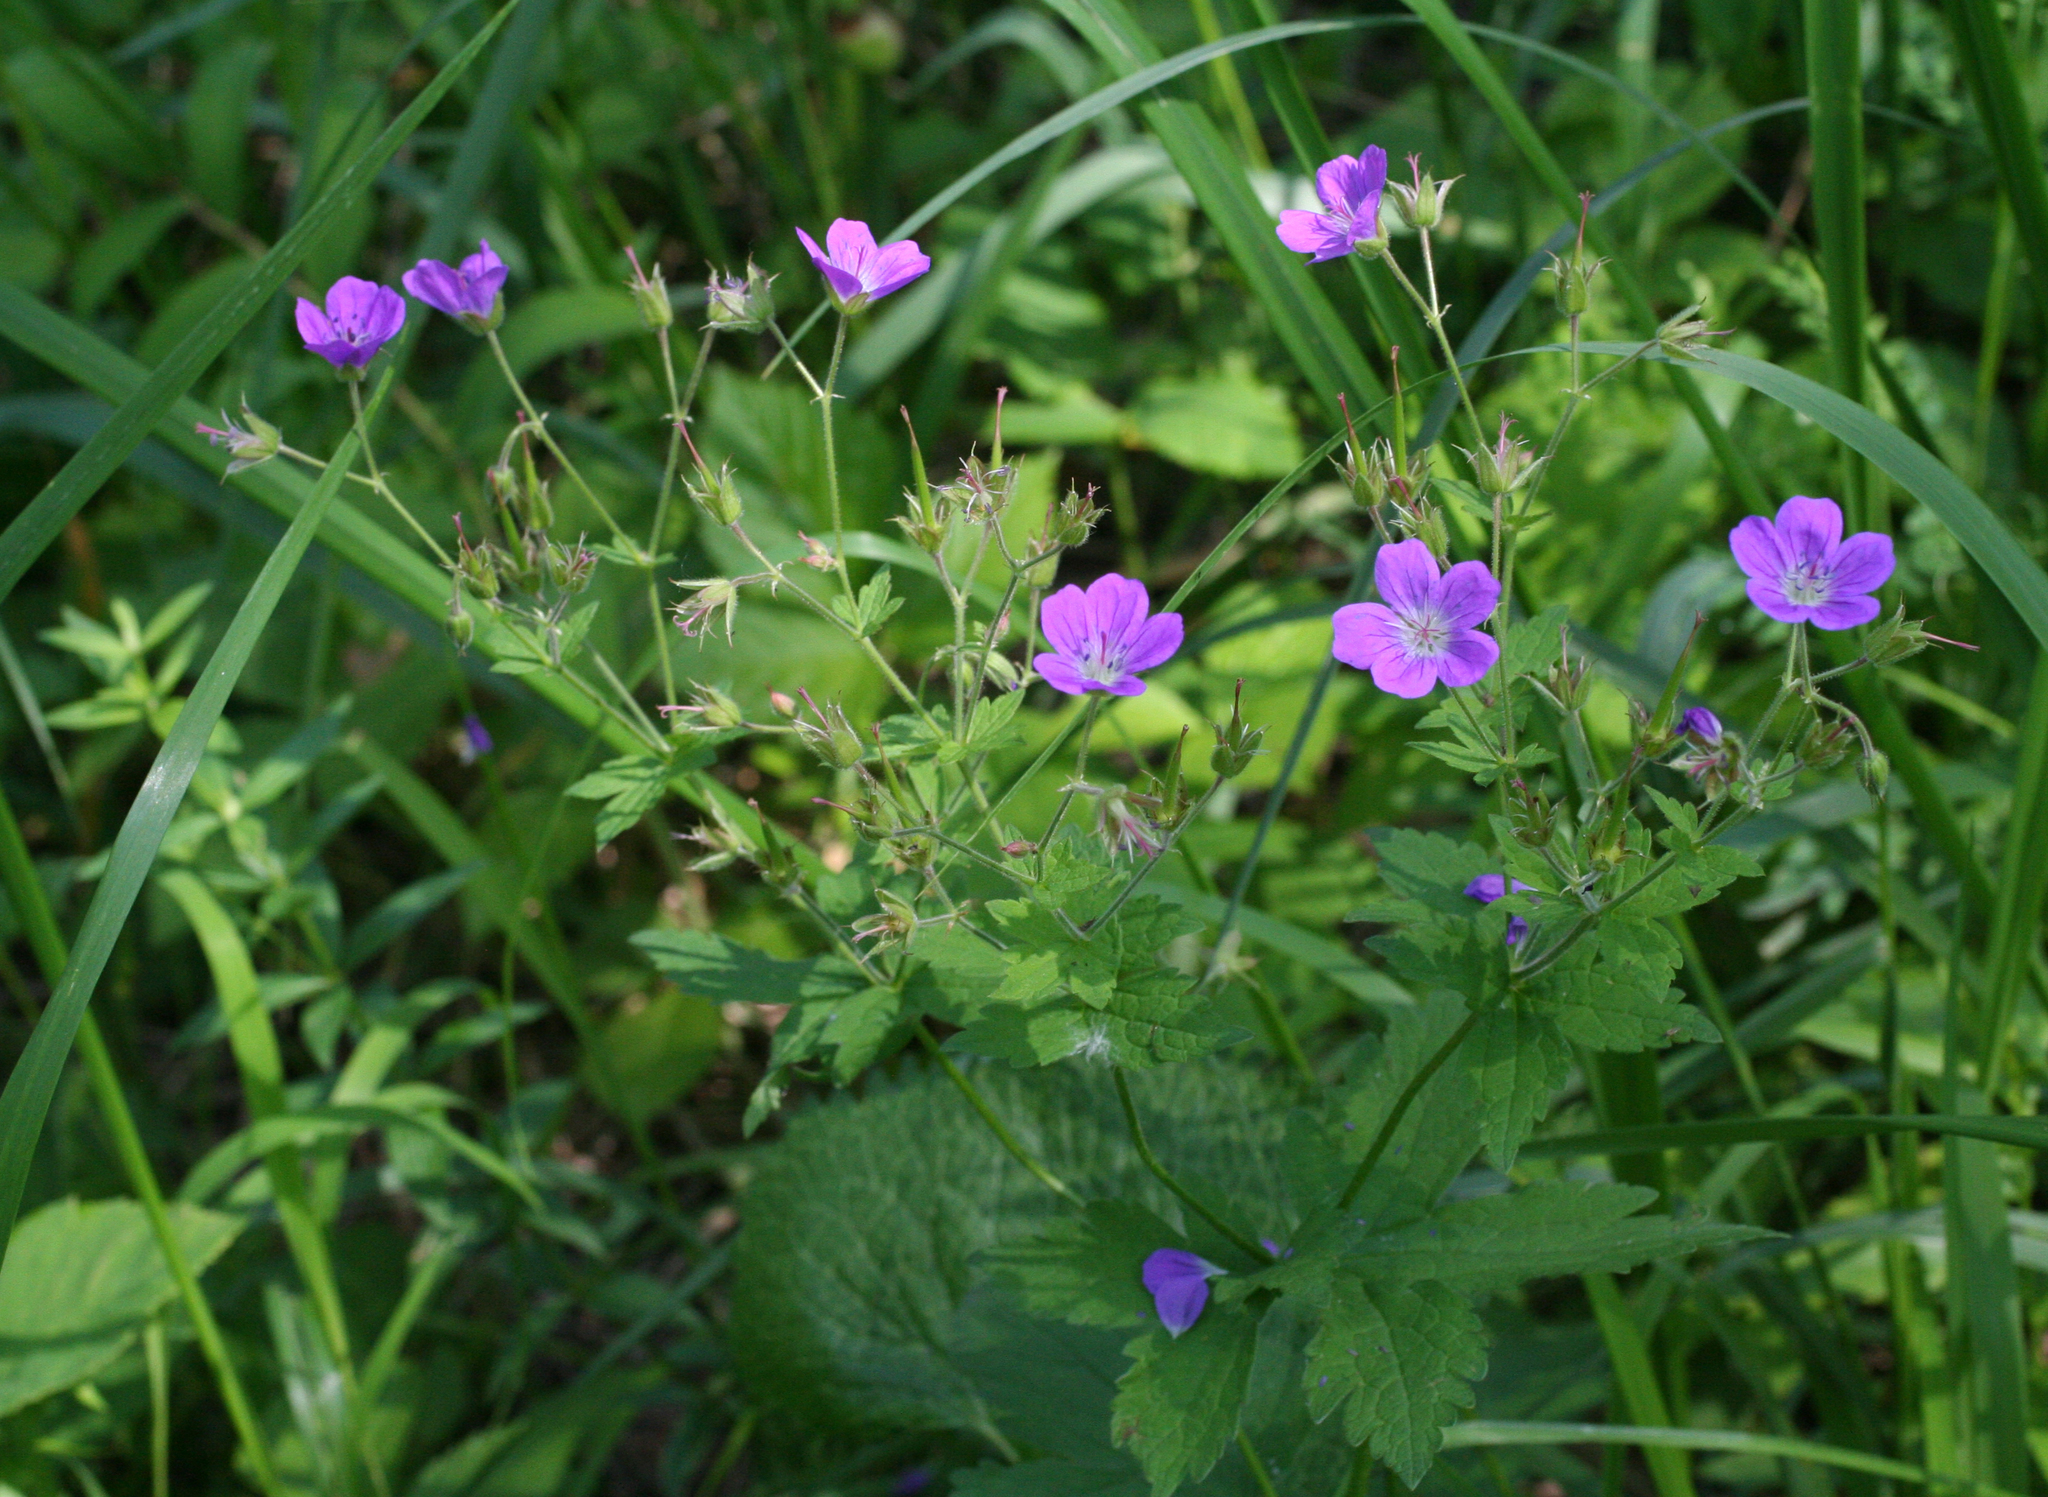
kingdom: Plantae
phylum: Tracheophyta
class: Magnoliopsida
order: Geraniales
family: Geraniaceae
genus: Geranium
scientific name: Geranium sylvaticum
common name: Wood crane's-bill
